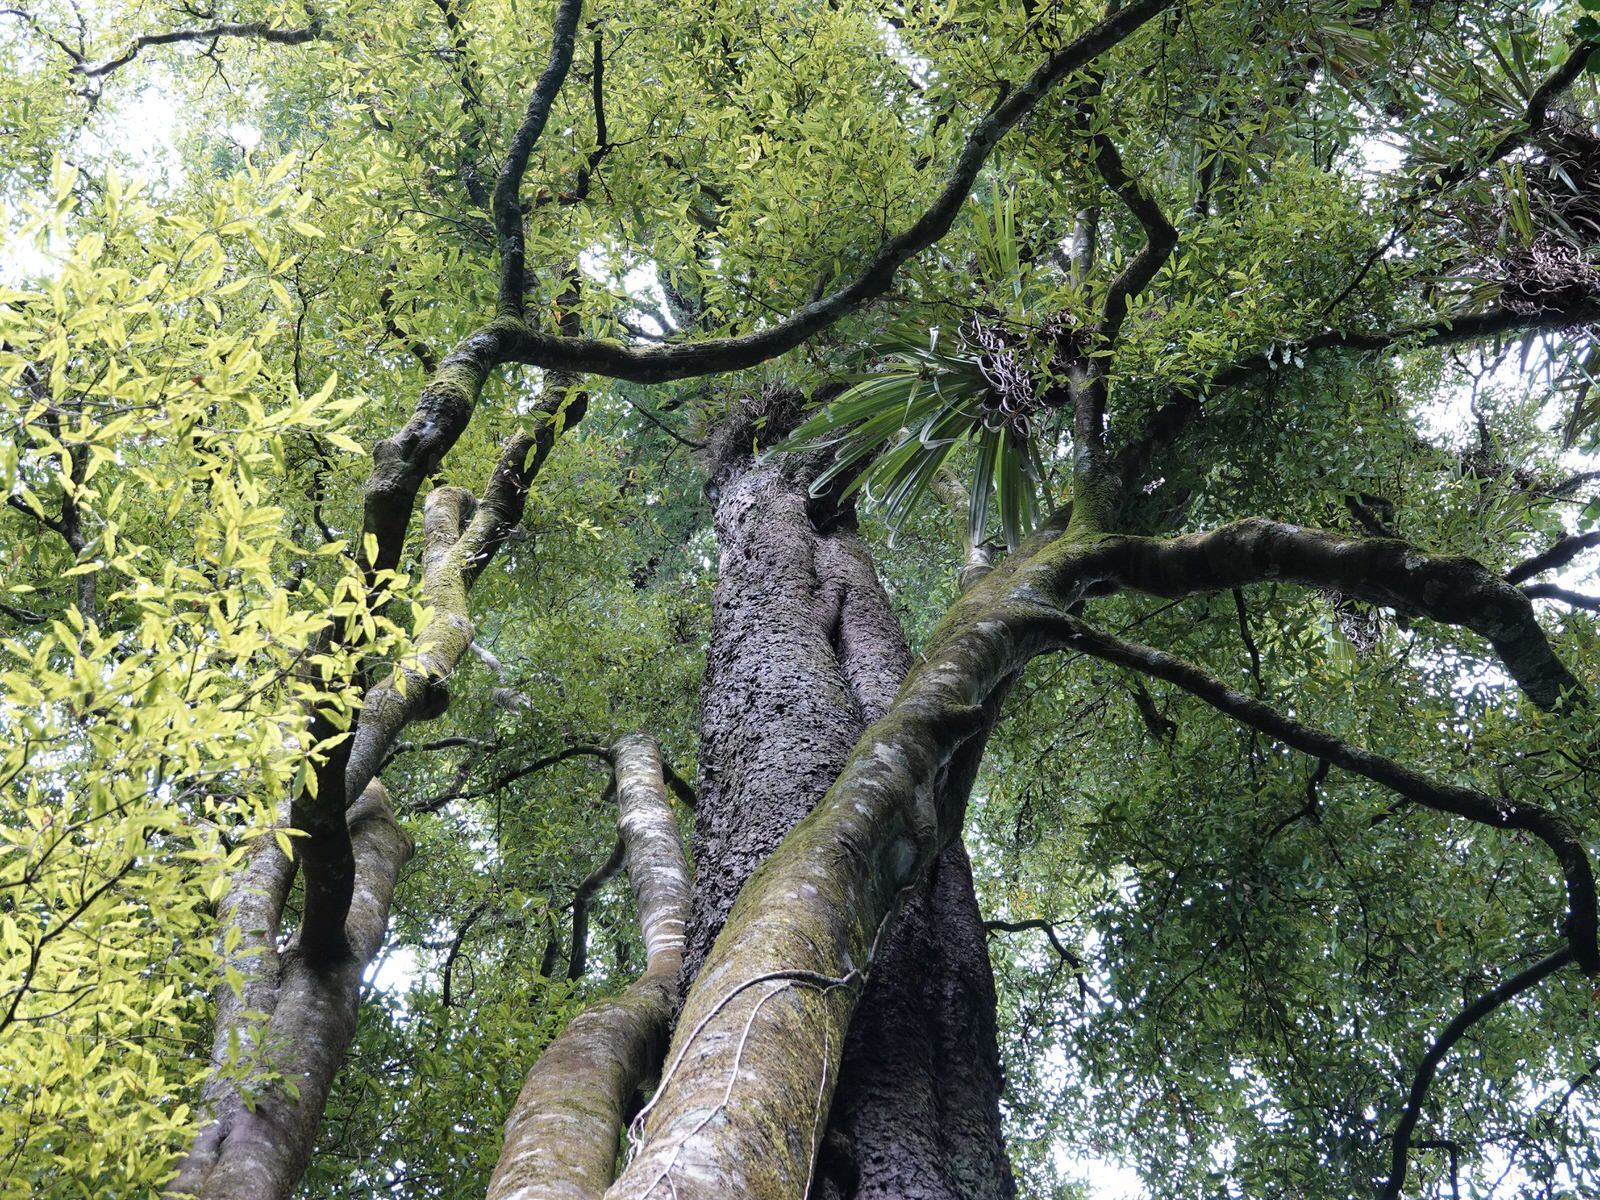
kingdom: Animalia
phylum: Arthropoda
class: Insecta
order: Hymenoptera
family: Apidae
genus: Apis
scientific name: Apis mellifera
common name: Honey bee
